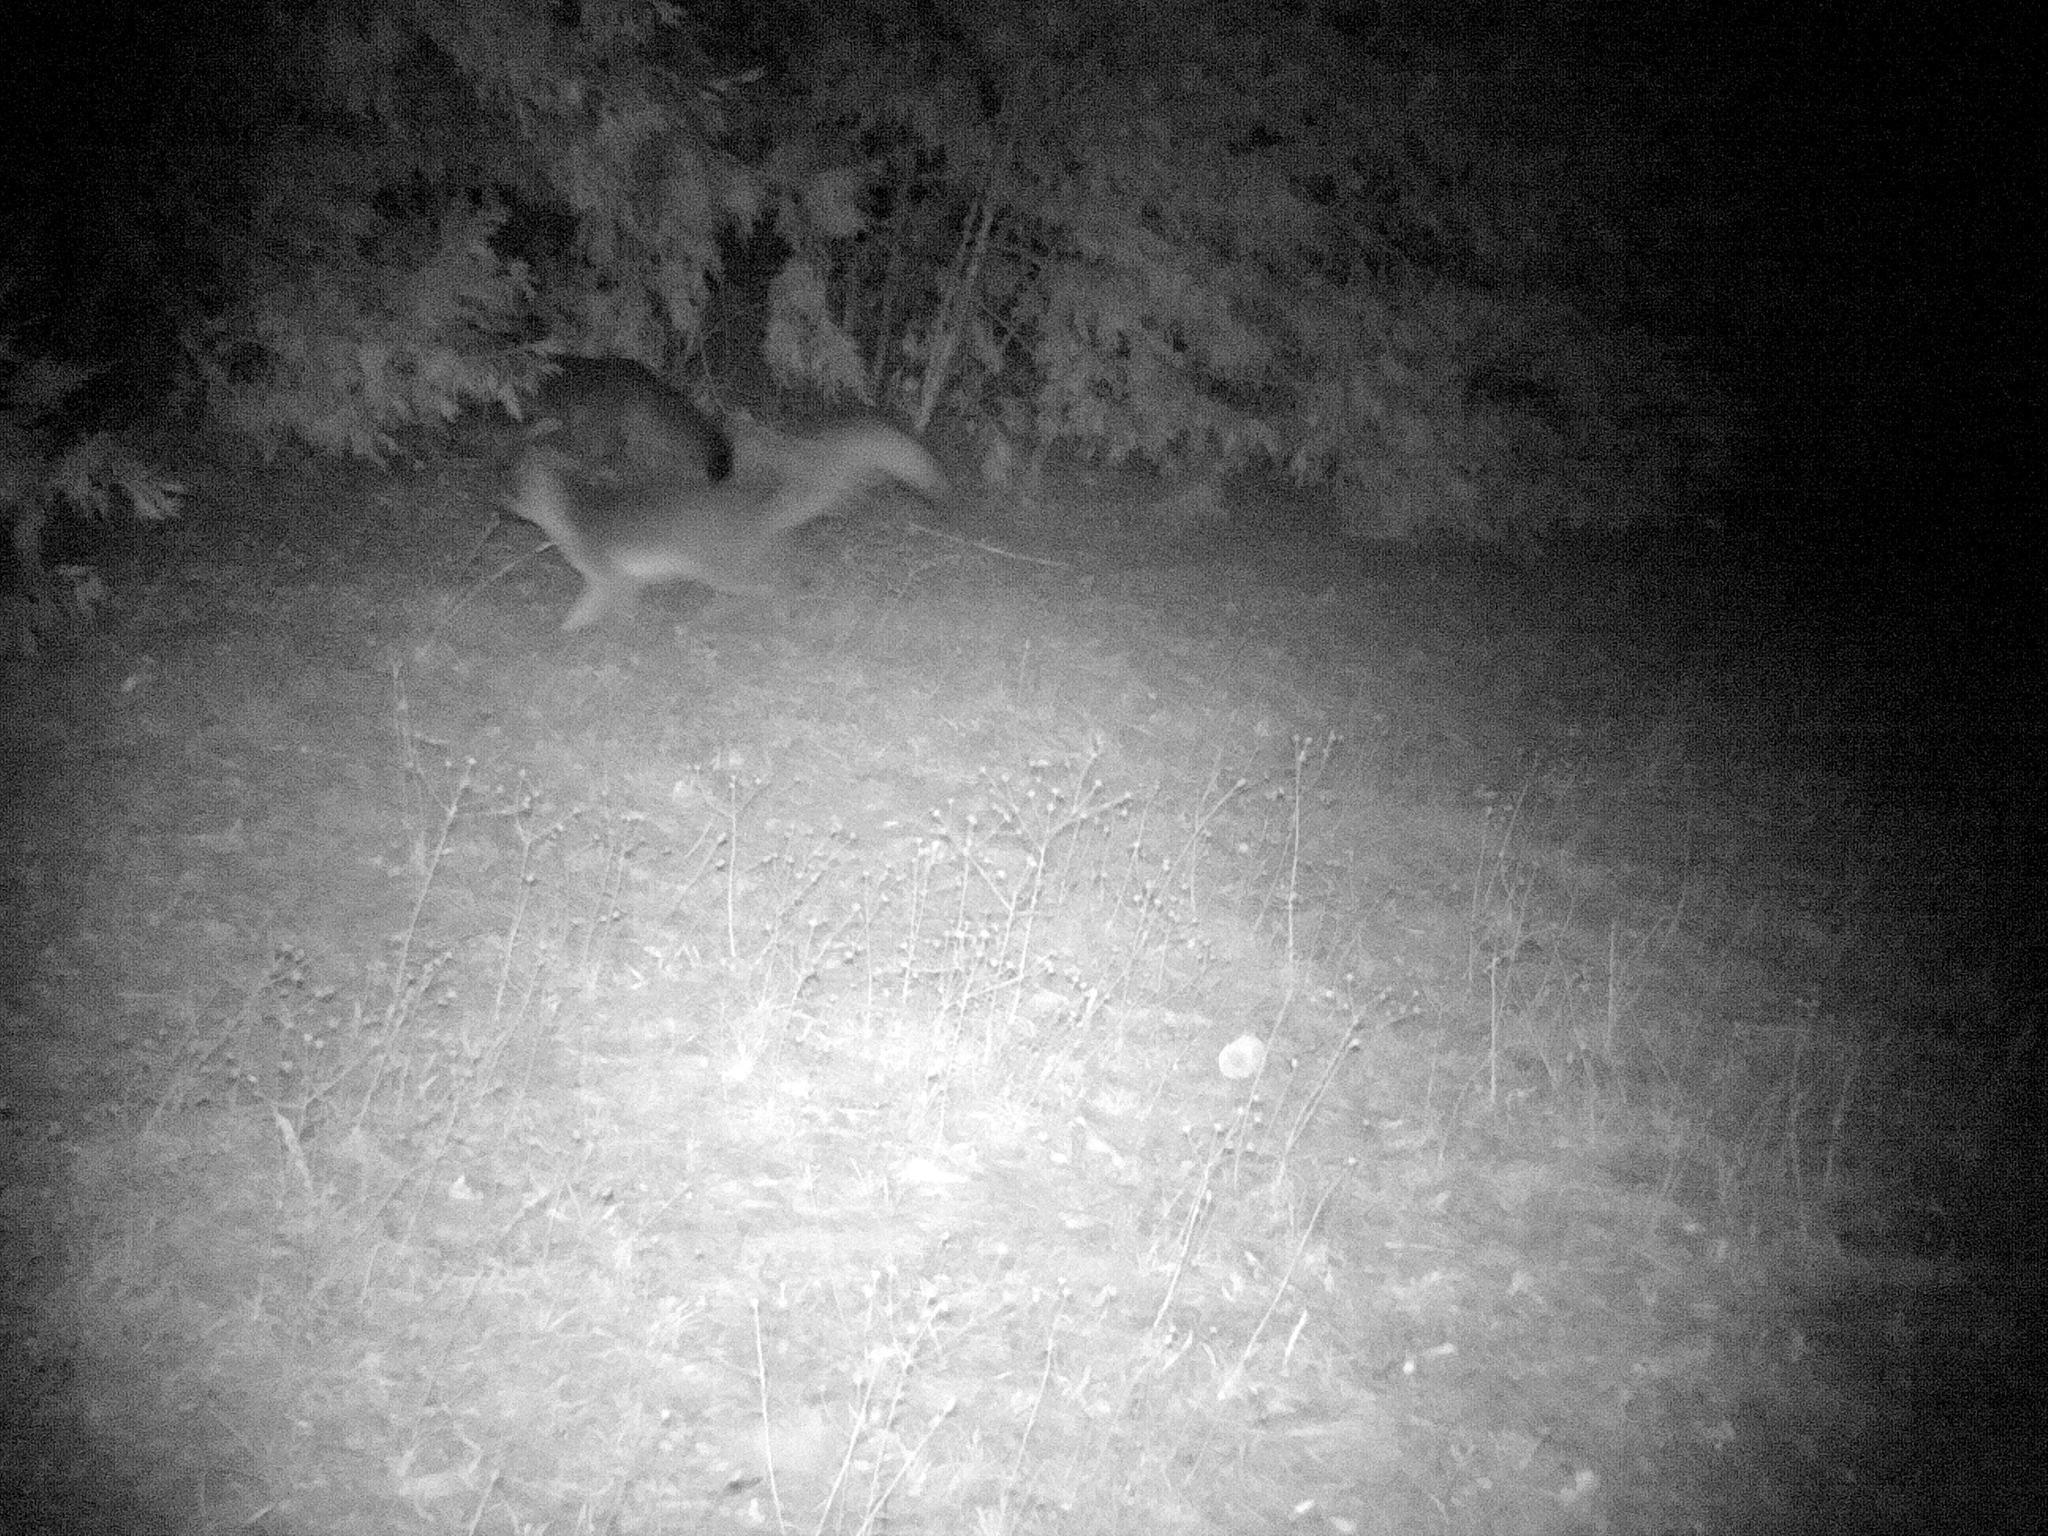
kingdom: Animalia
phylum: Chordata
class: Mammalia
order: Carnivora
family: Canidae
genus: Urocyon
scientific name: Urocyon cinereoargenteus
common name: Gray fox
